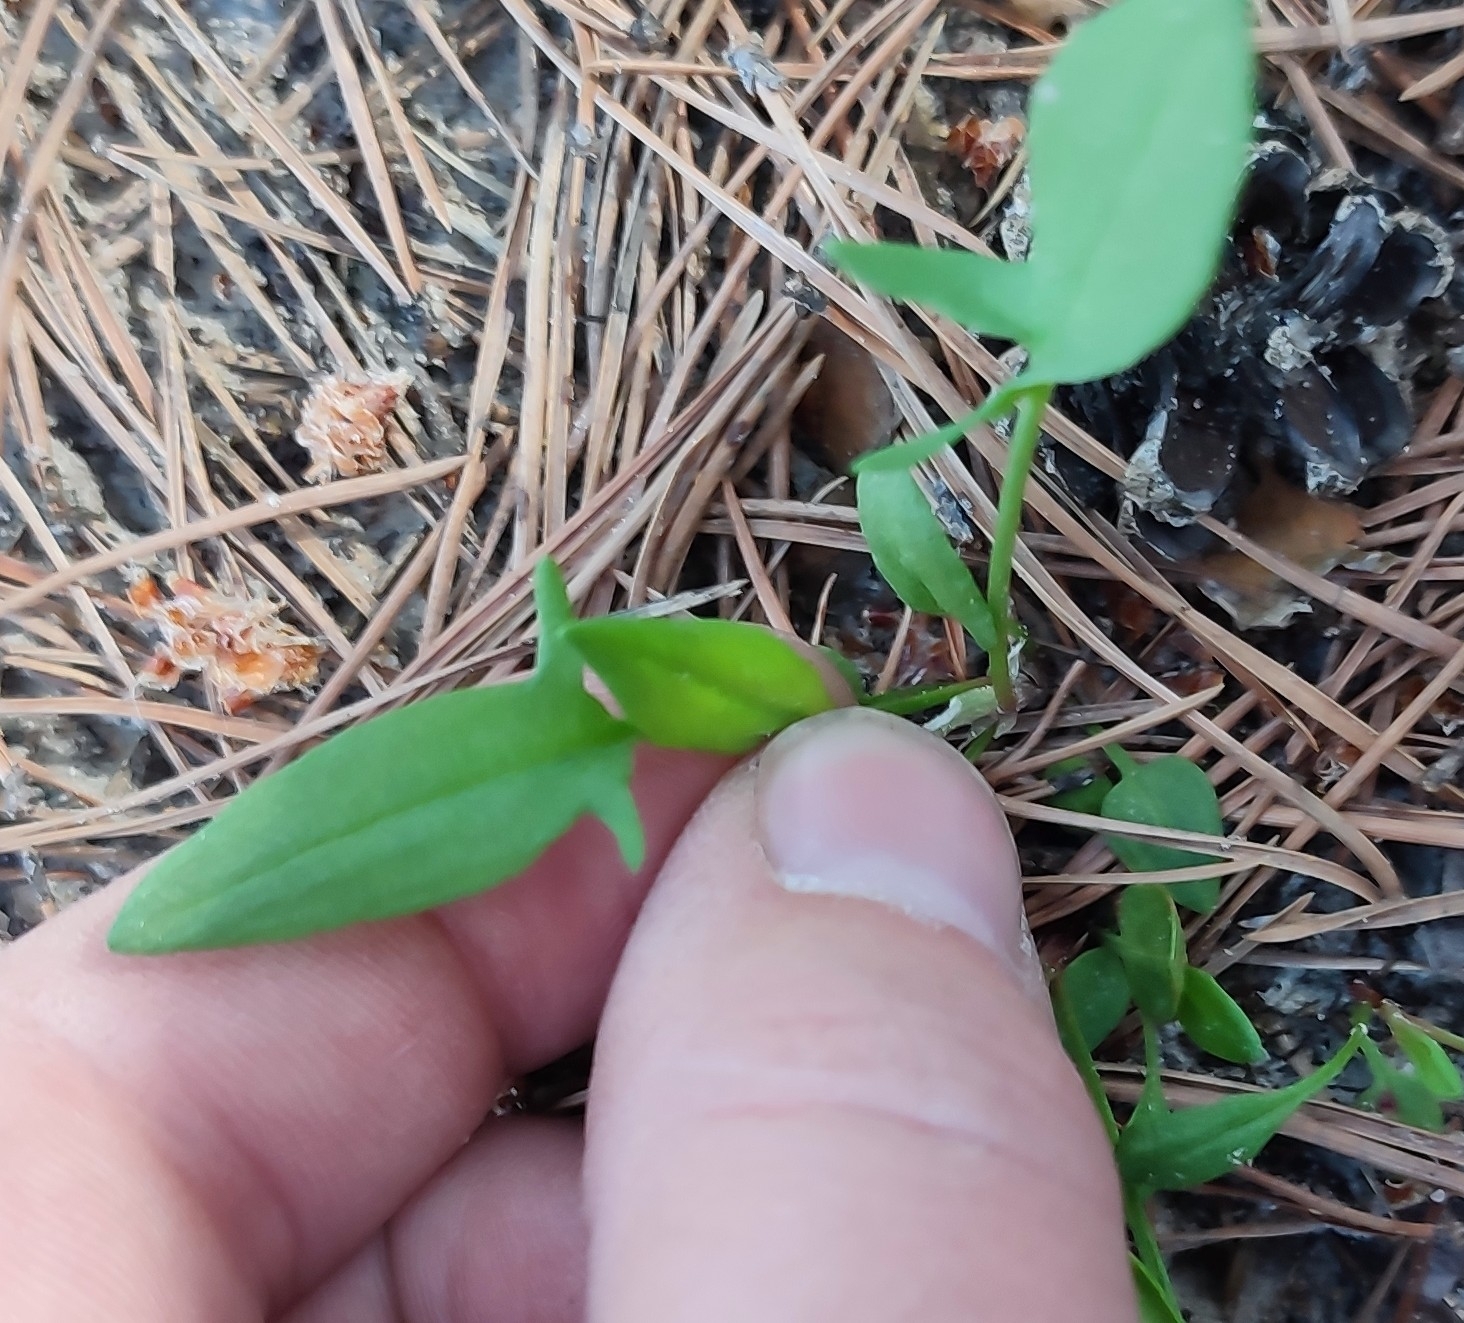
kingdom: Plantae
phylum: Tracheophyta
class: Magnoliopsida
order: Caryophyllales
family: Polygonaceae
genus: Rumex
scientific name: Rumex acetosella
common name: Common sheep sorrel
